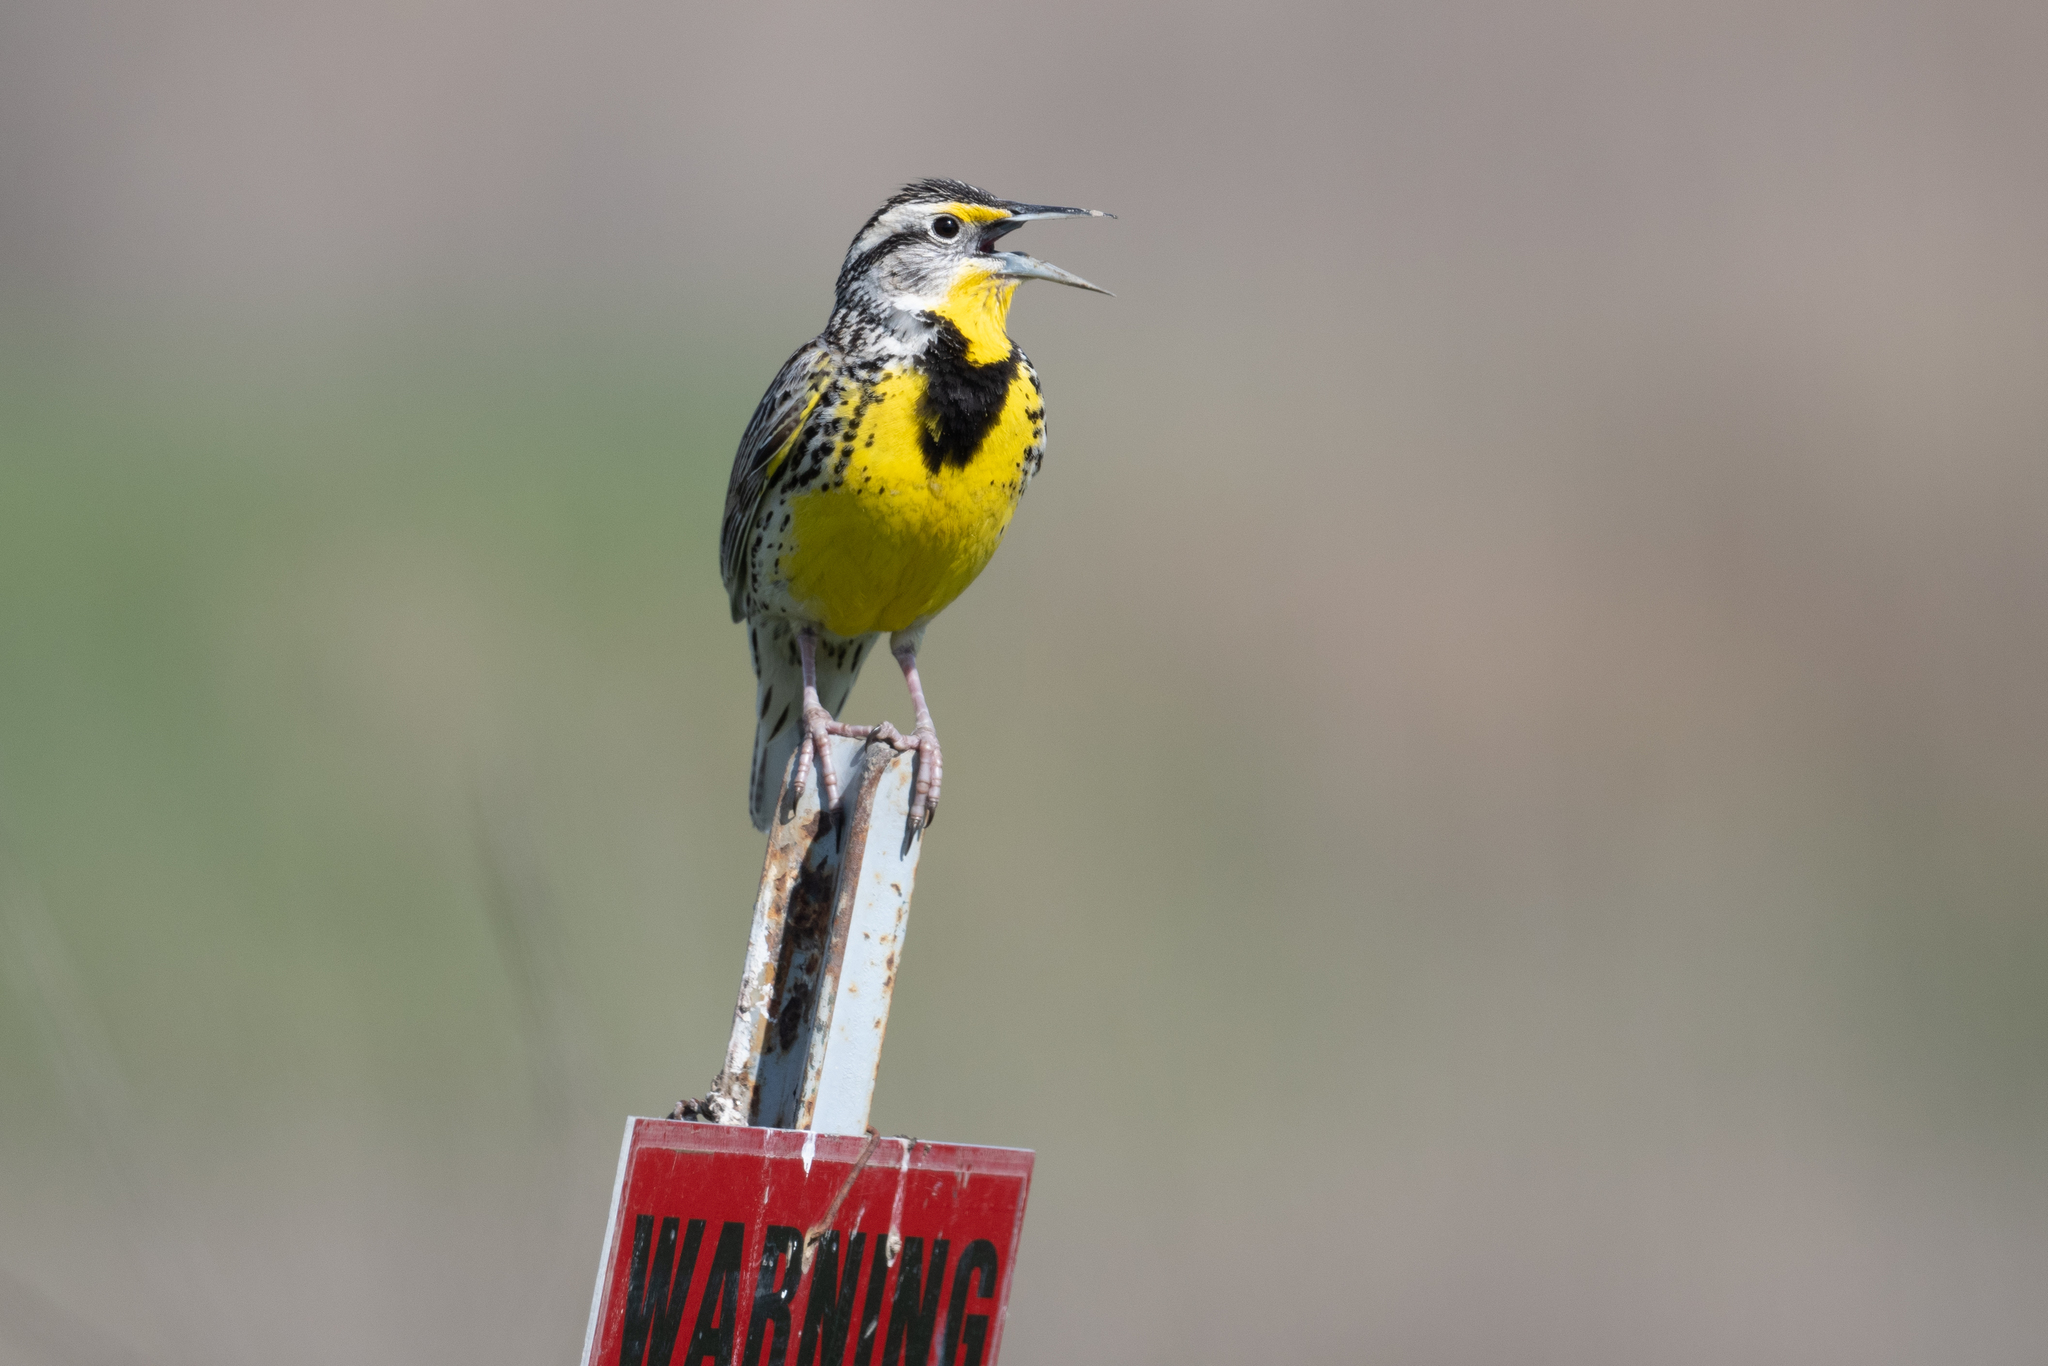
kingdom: Animalia
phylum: Chordata
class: Aves
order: Passeriformes
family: Icteridae
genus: Sturnella
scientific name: Sturnella neglecta
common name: Western meadowlark
